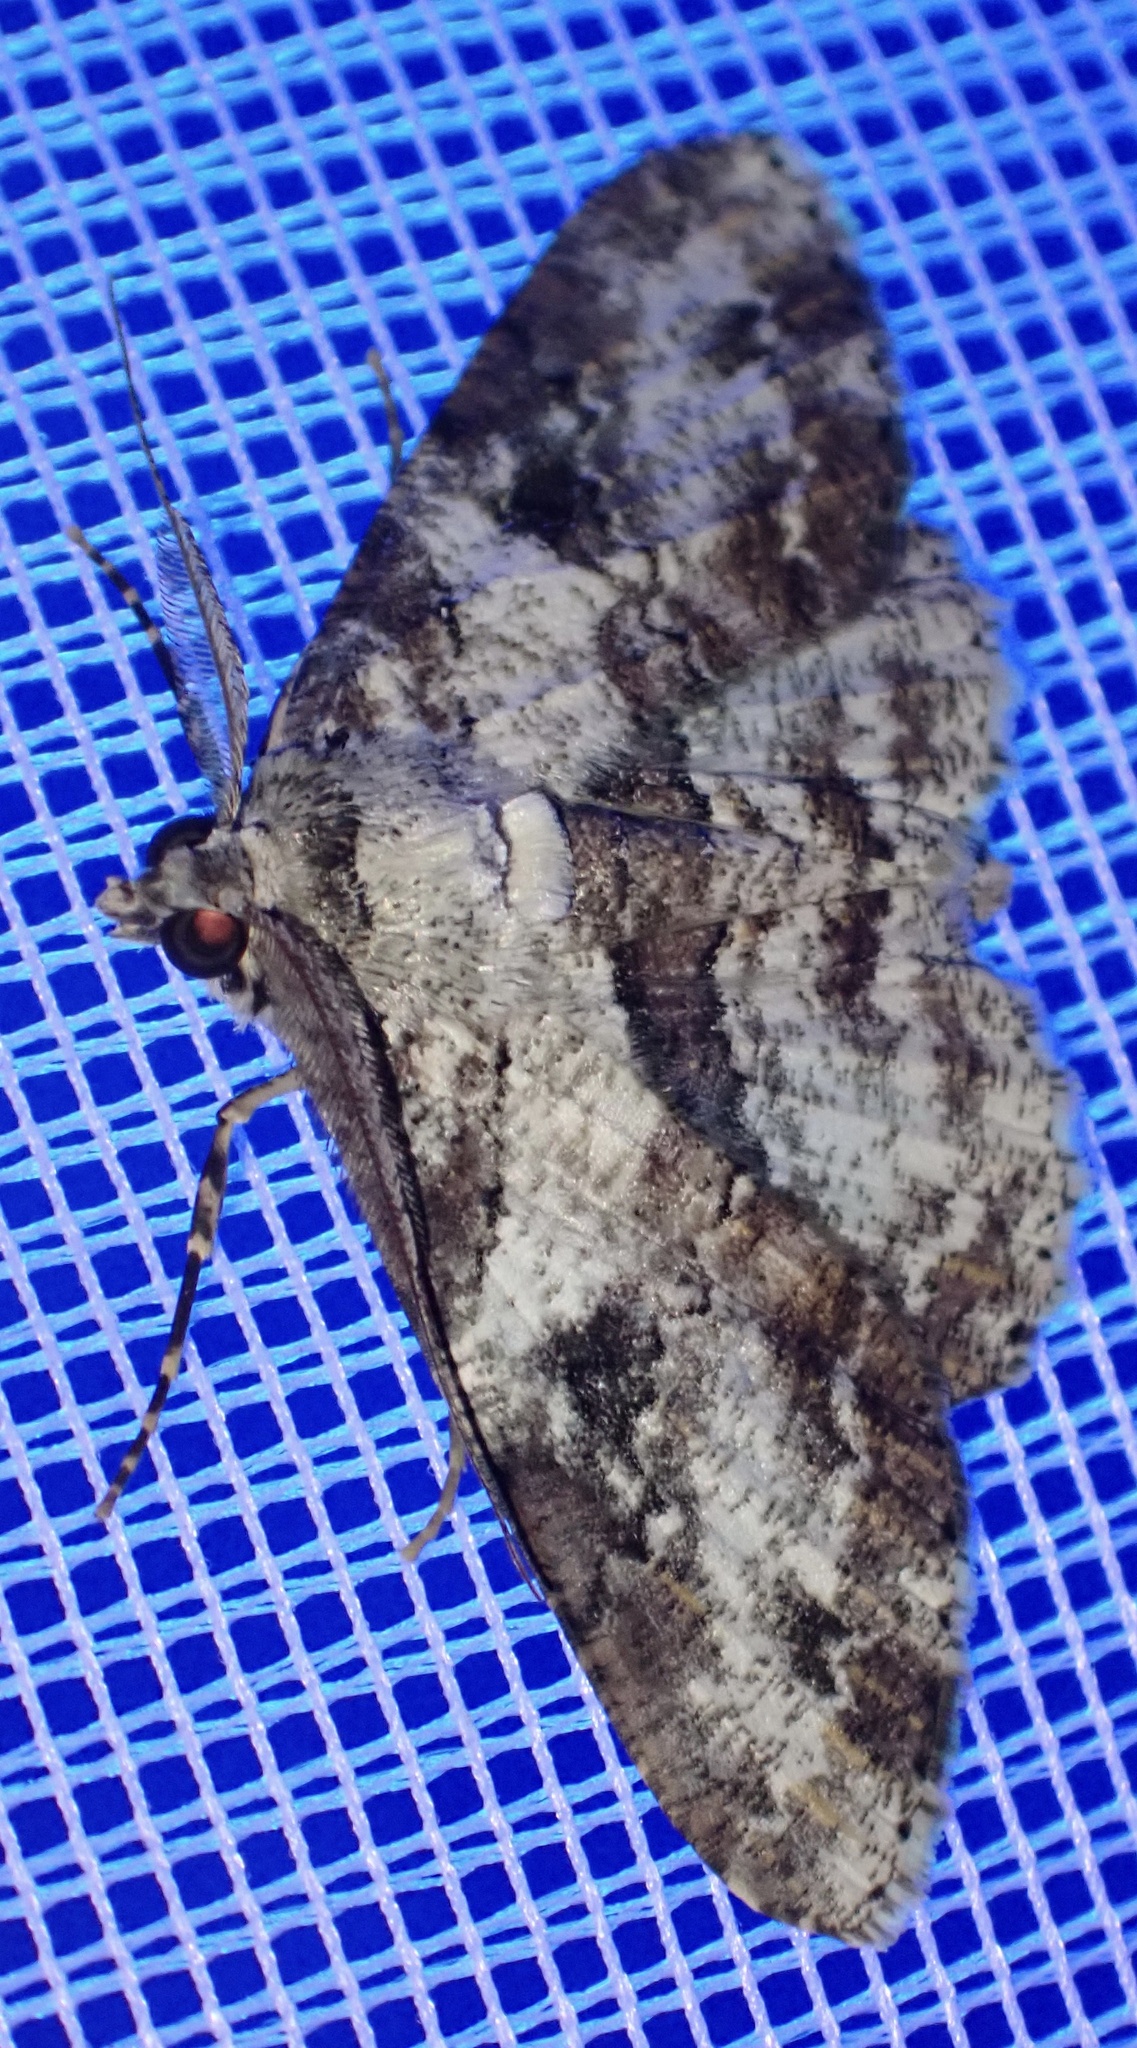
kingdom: Animalia
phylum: Arthropoda
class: Insecta
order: Lepidoptera
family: Geometridae
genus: Cleora
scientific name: Cleora repetita
